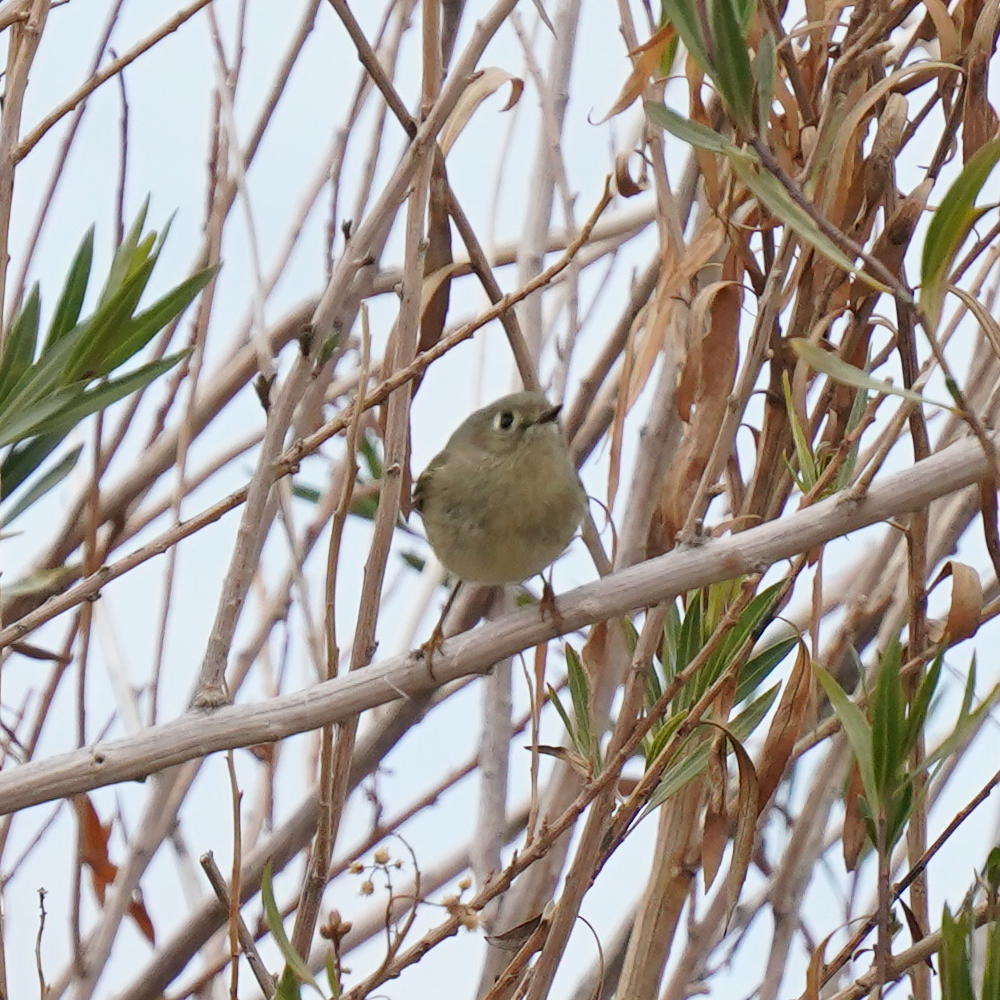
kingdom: Animalia
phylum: Chordata
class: Aves
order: Passeriformes
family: Regulidae
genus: Regulus
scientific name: Regulus calendula
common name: Ruby-crowned kinglet
